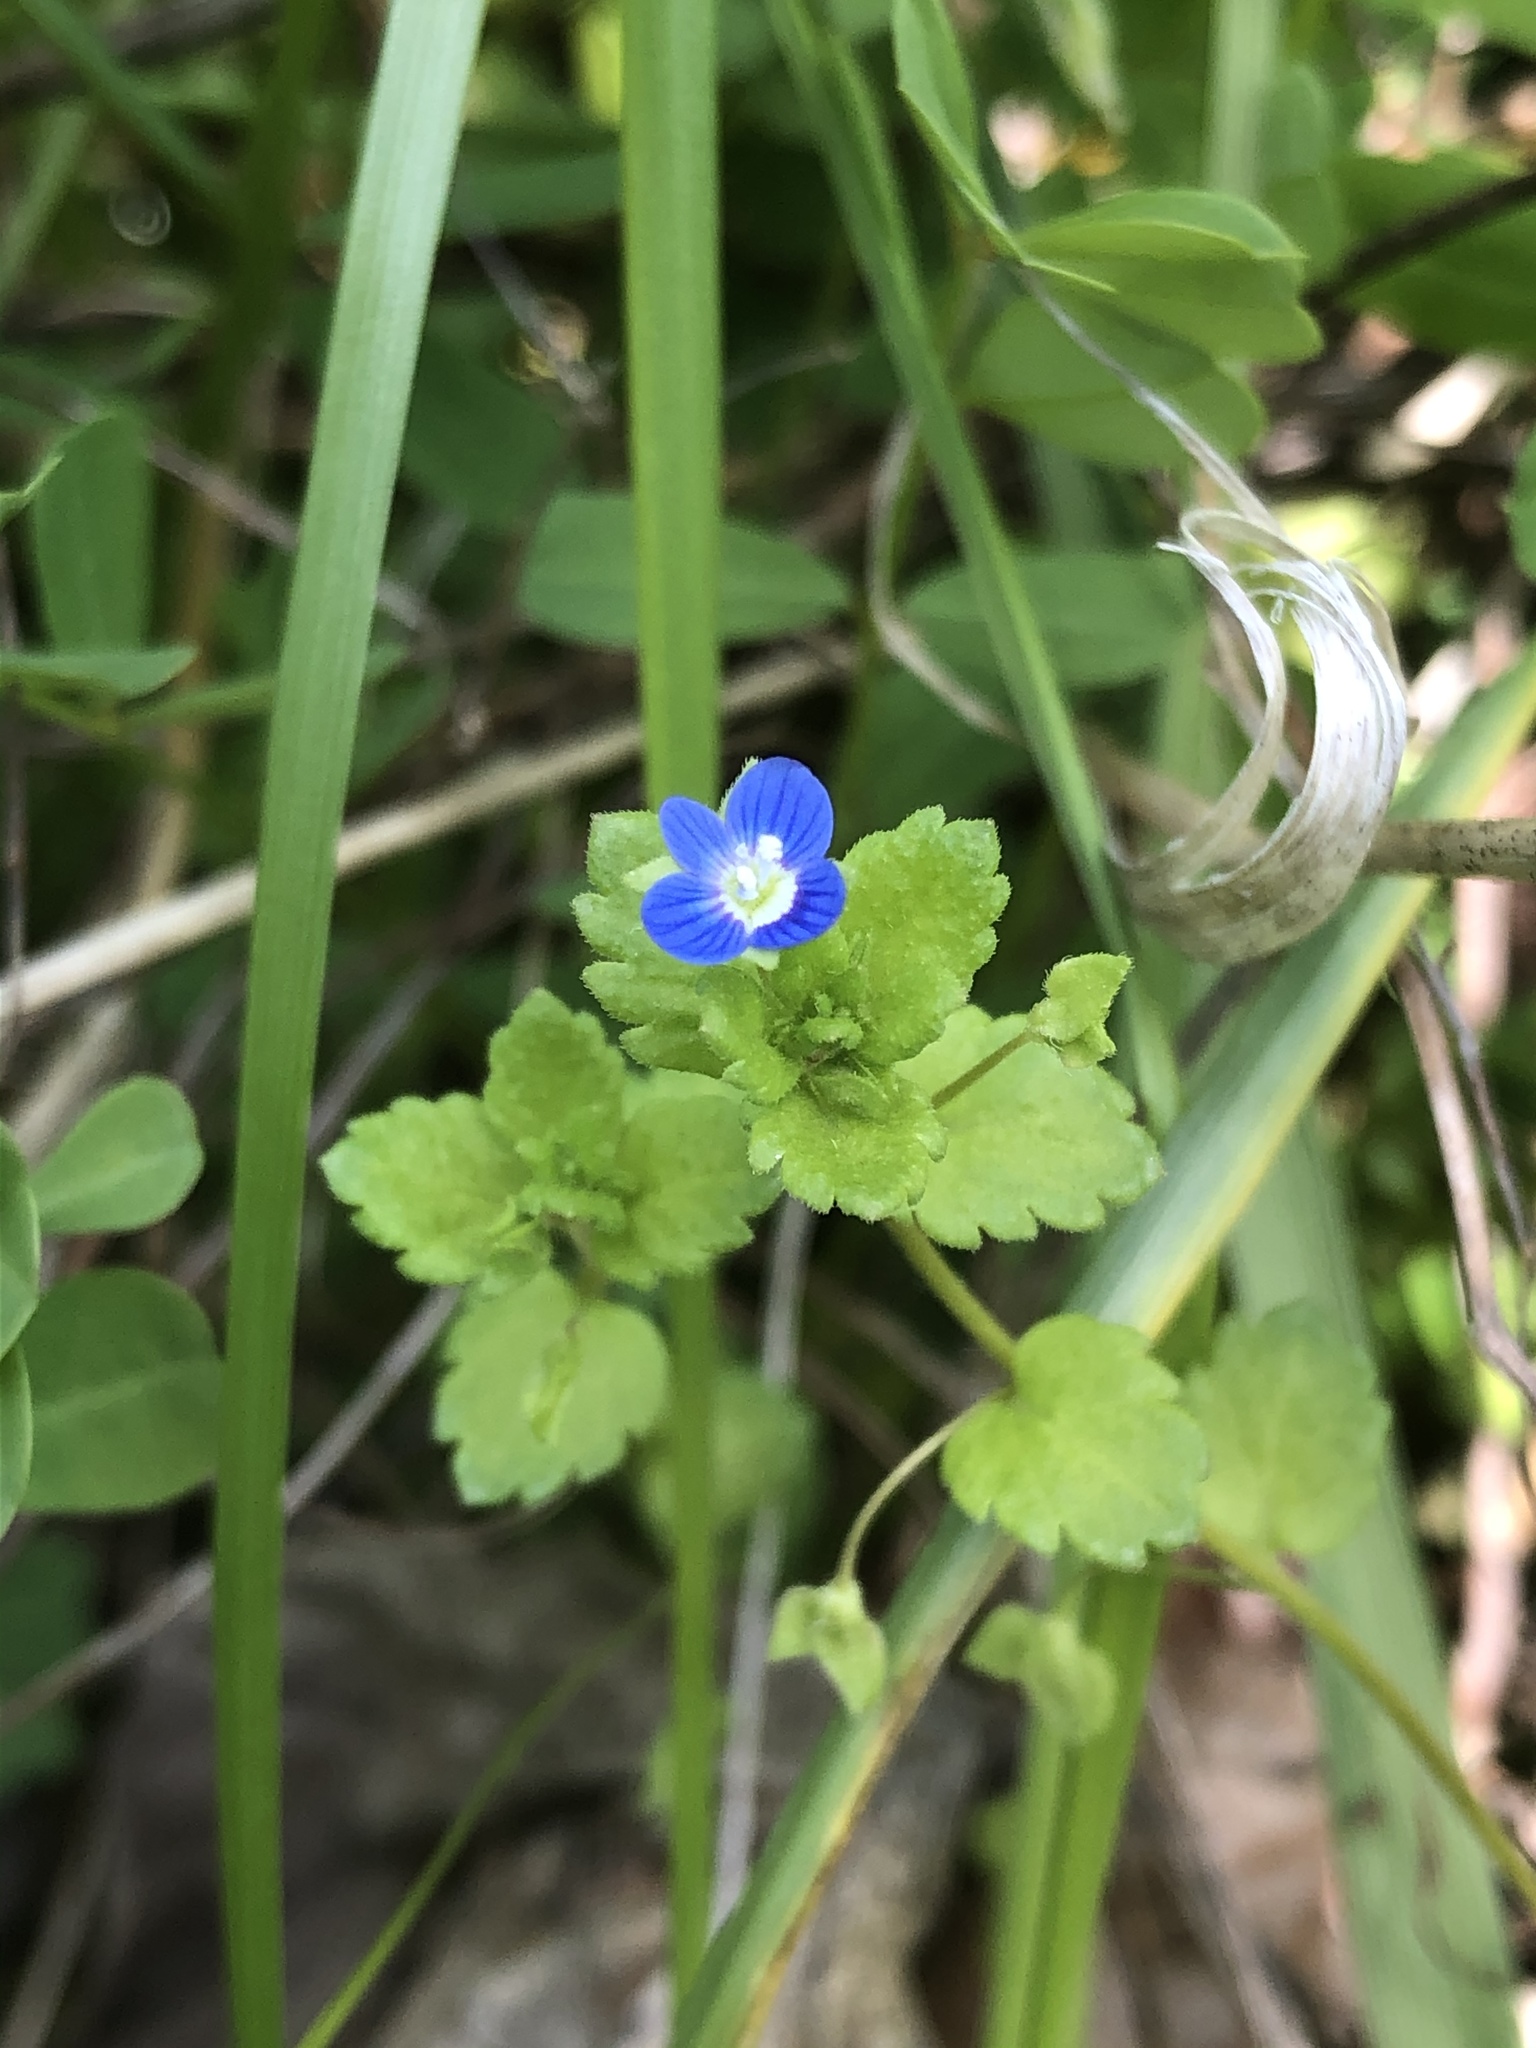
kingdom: Plantae
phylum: Tracheophyta
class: Magnoliopsida
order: Lamiales
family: Plantaginaceae
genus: Veronica
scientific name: Veronica persica
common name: Common field-speedwell
